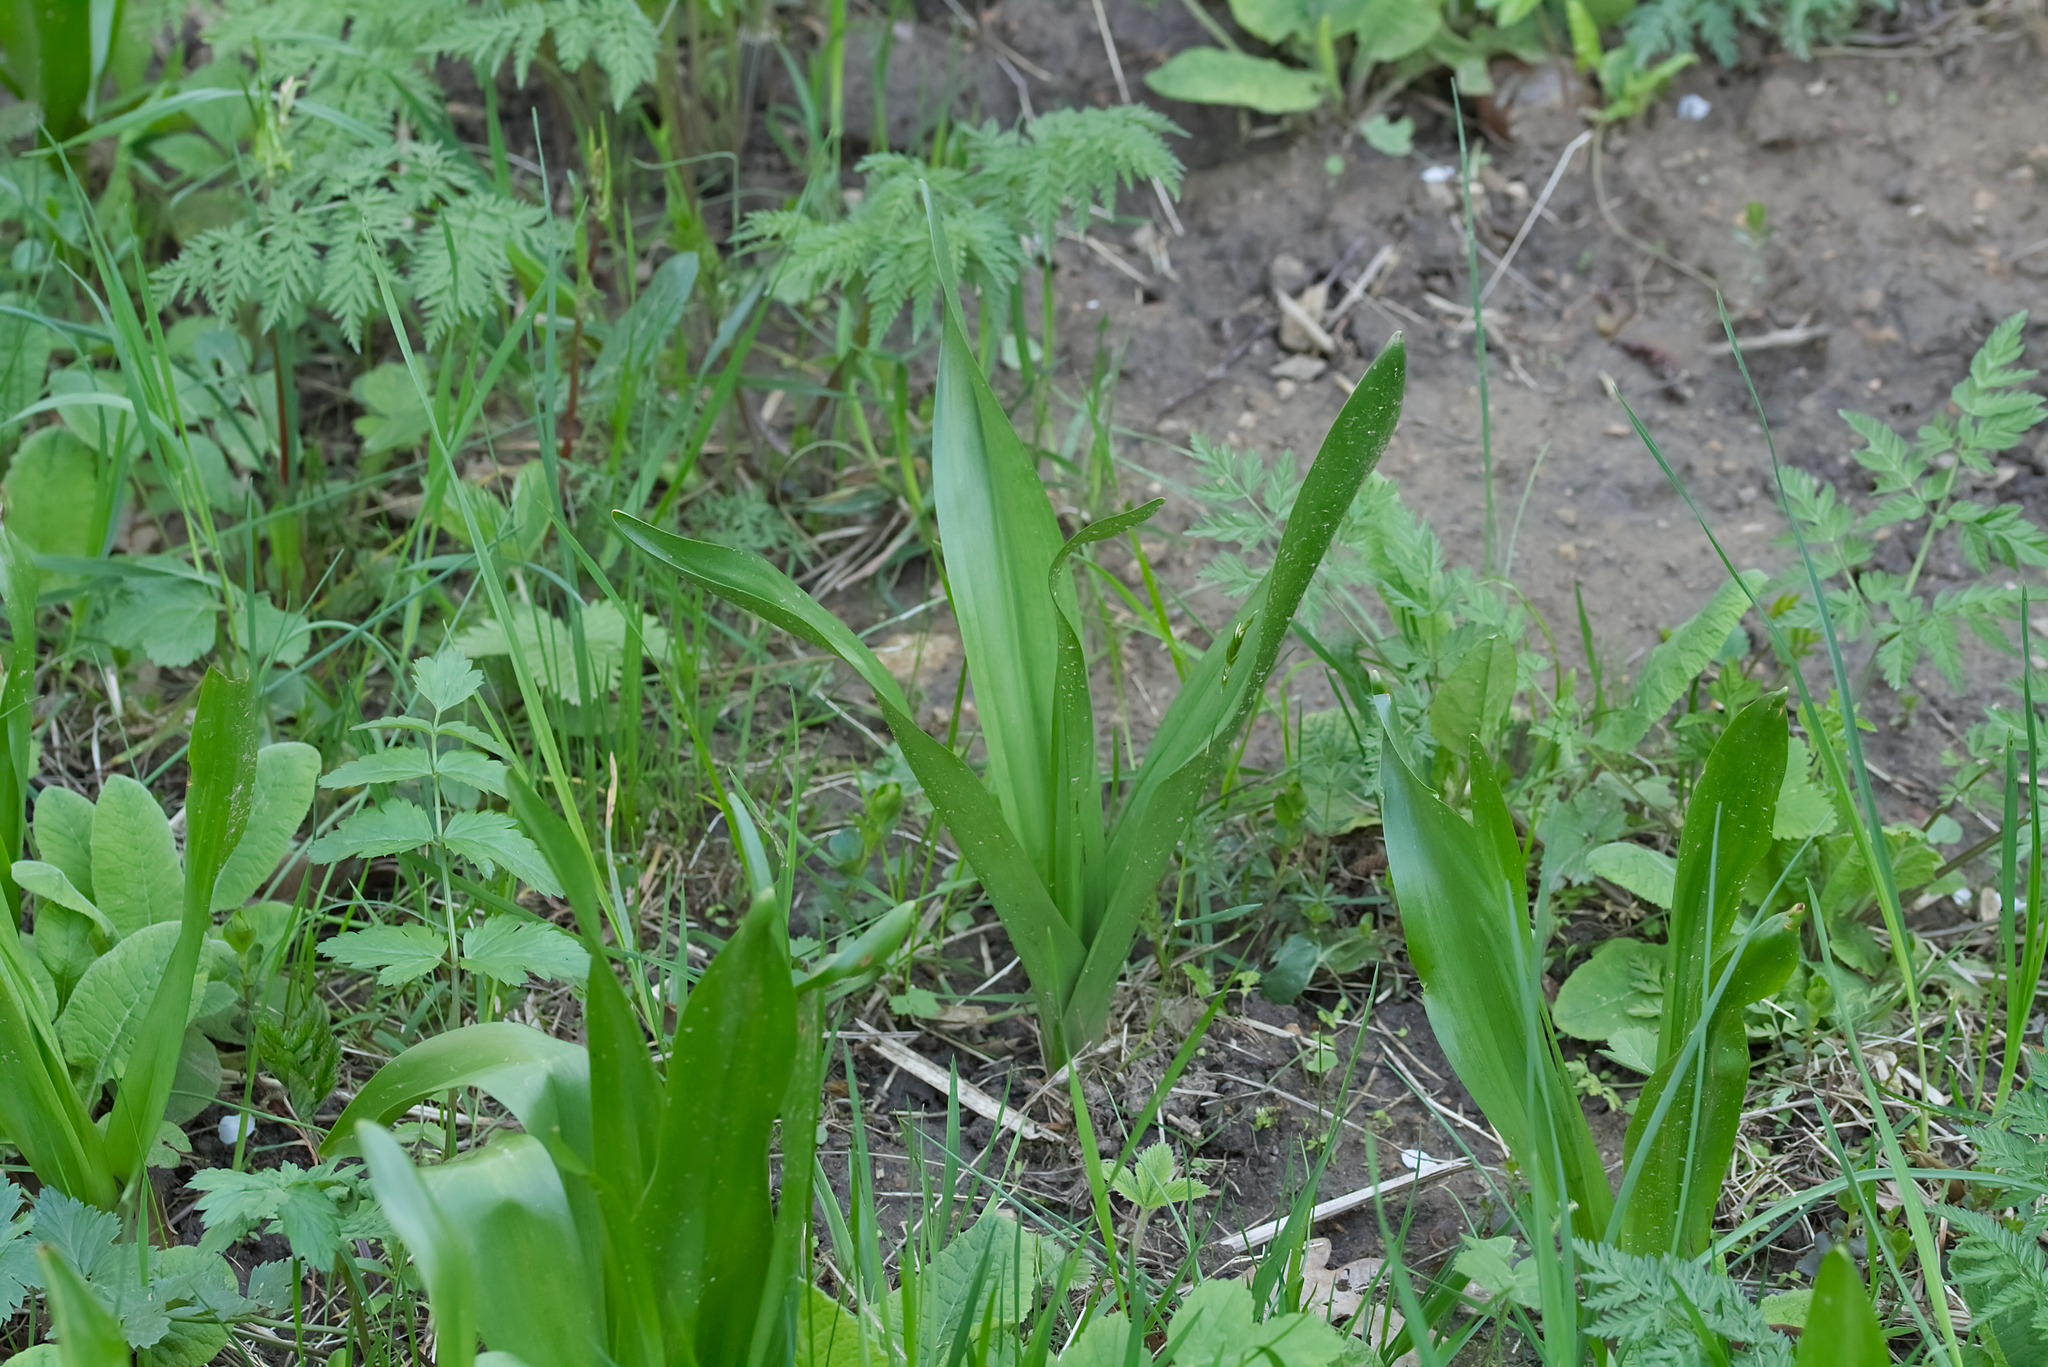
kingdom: Plantae
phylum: Tracheophyta
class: Liliopsida
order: Liliales
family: Colchicaceae
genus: Colchicum
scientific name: Colchicum autumnale
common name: Autumn crocus
